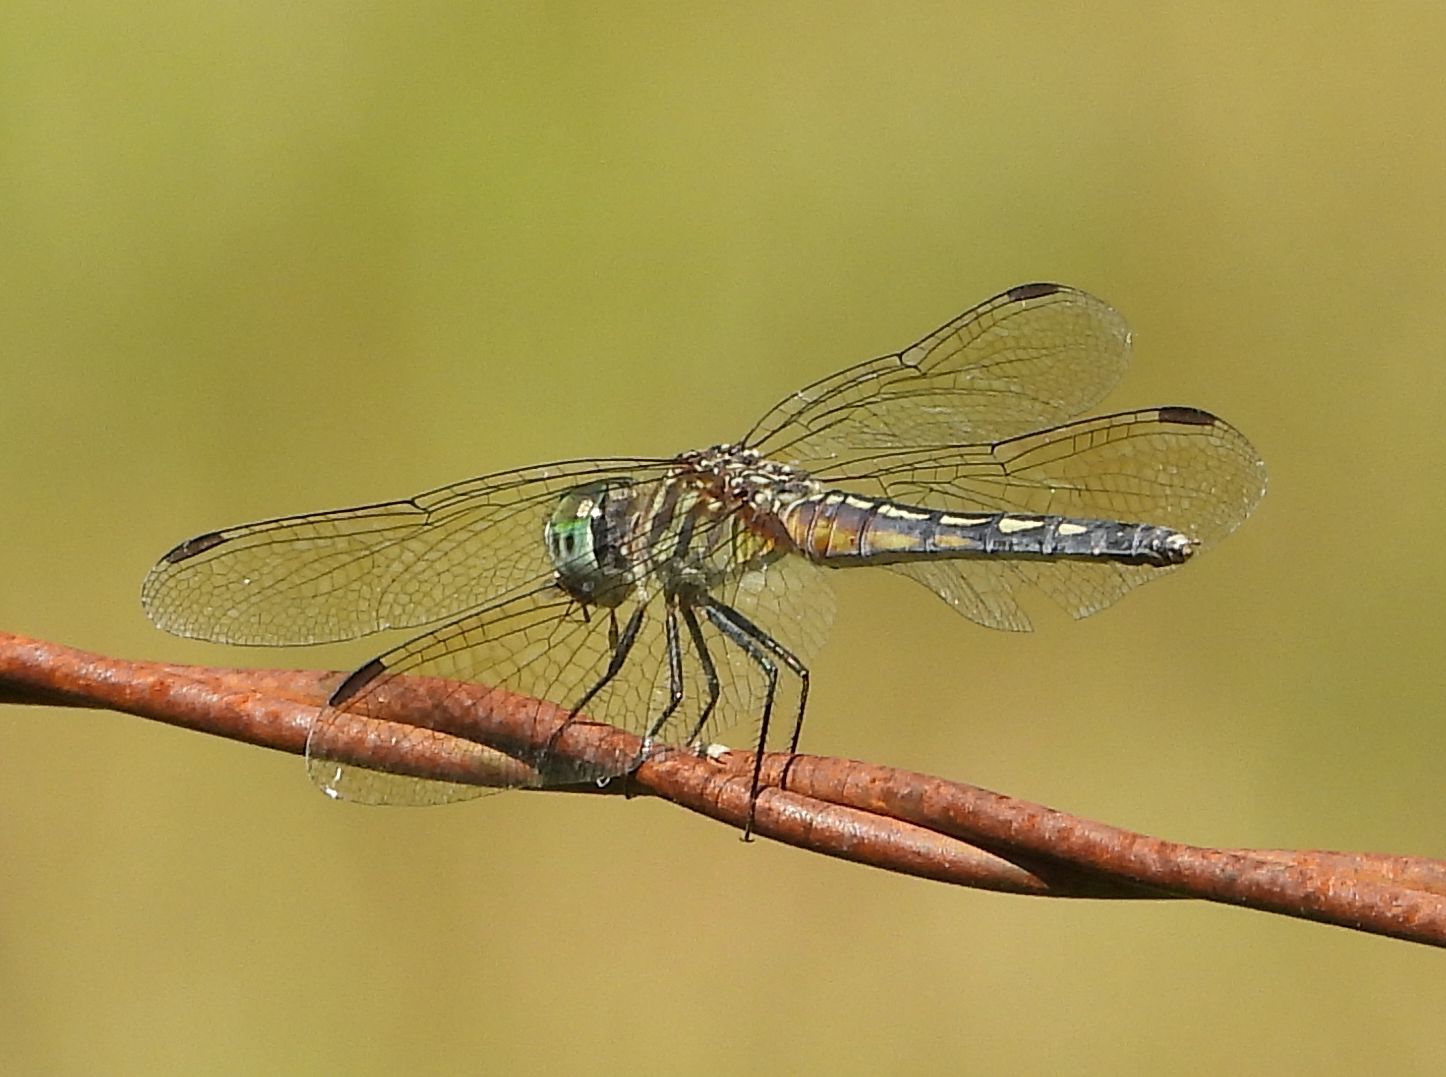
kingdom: Animalia
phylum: Arthropoda
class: Insecta
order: Odonata
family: Libellulidae
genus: Pachydiplax
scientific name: Pachydiplax longipennis
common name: Blue dasher
